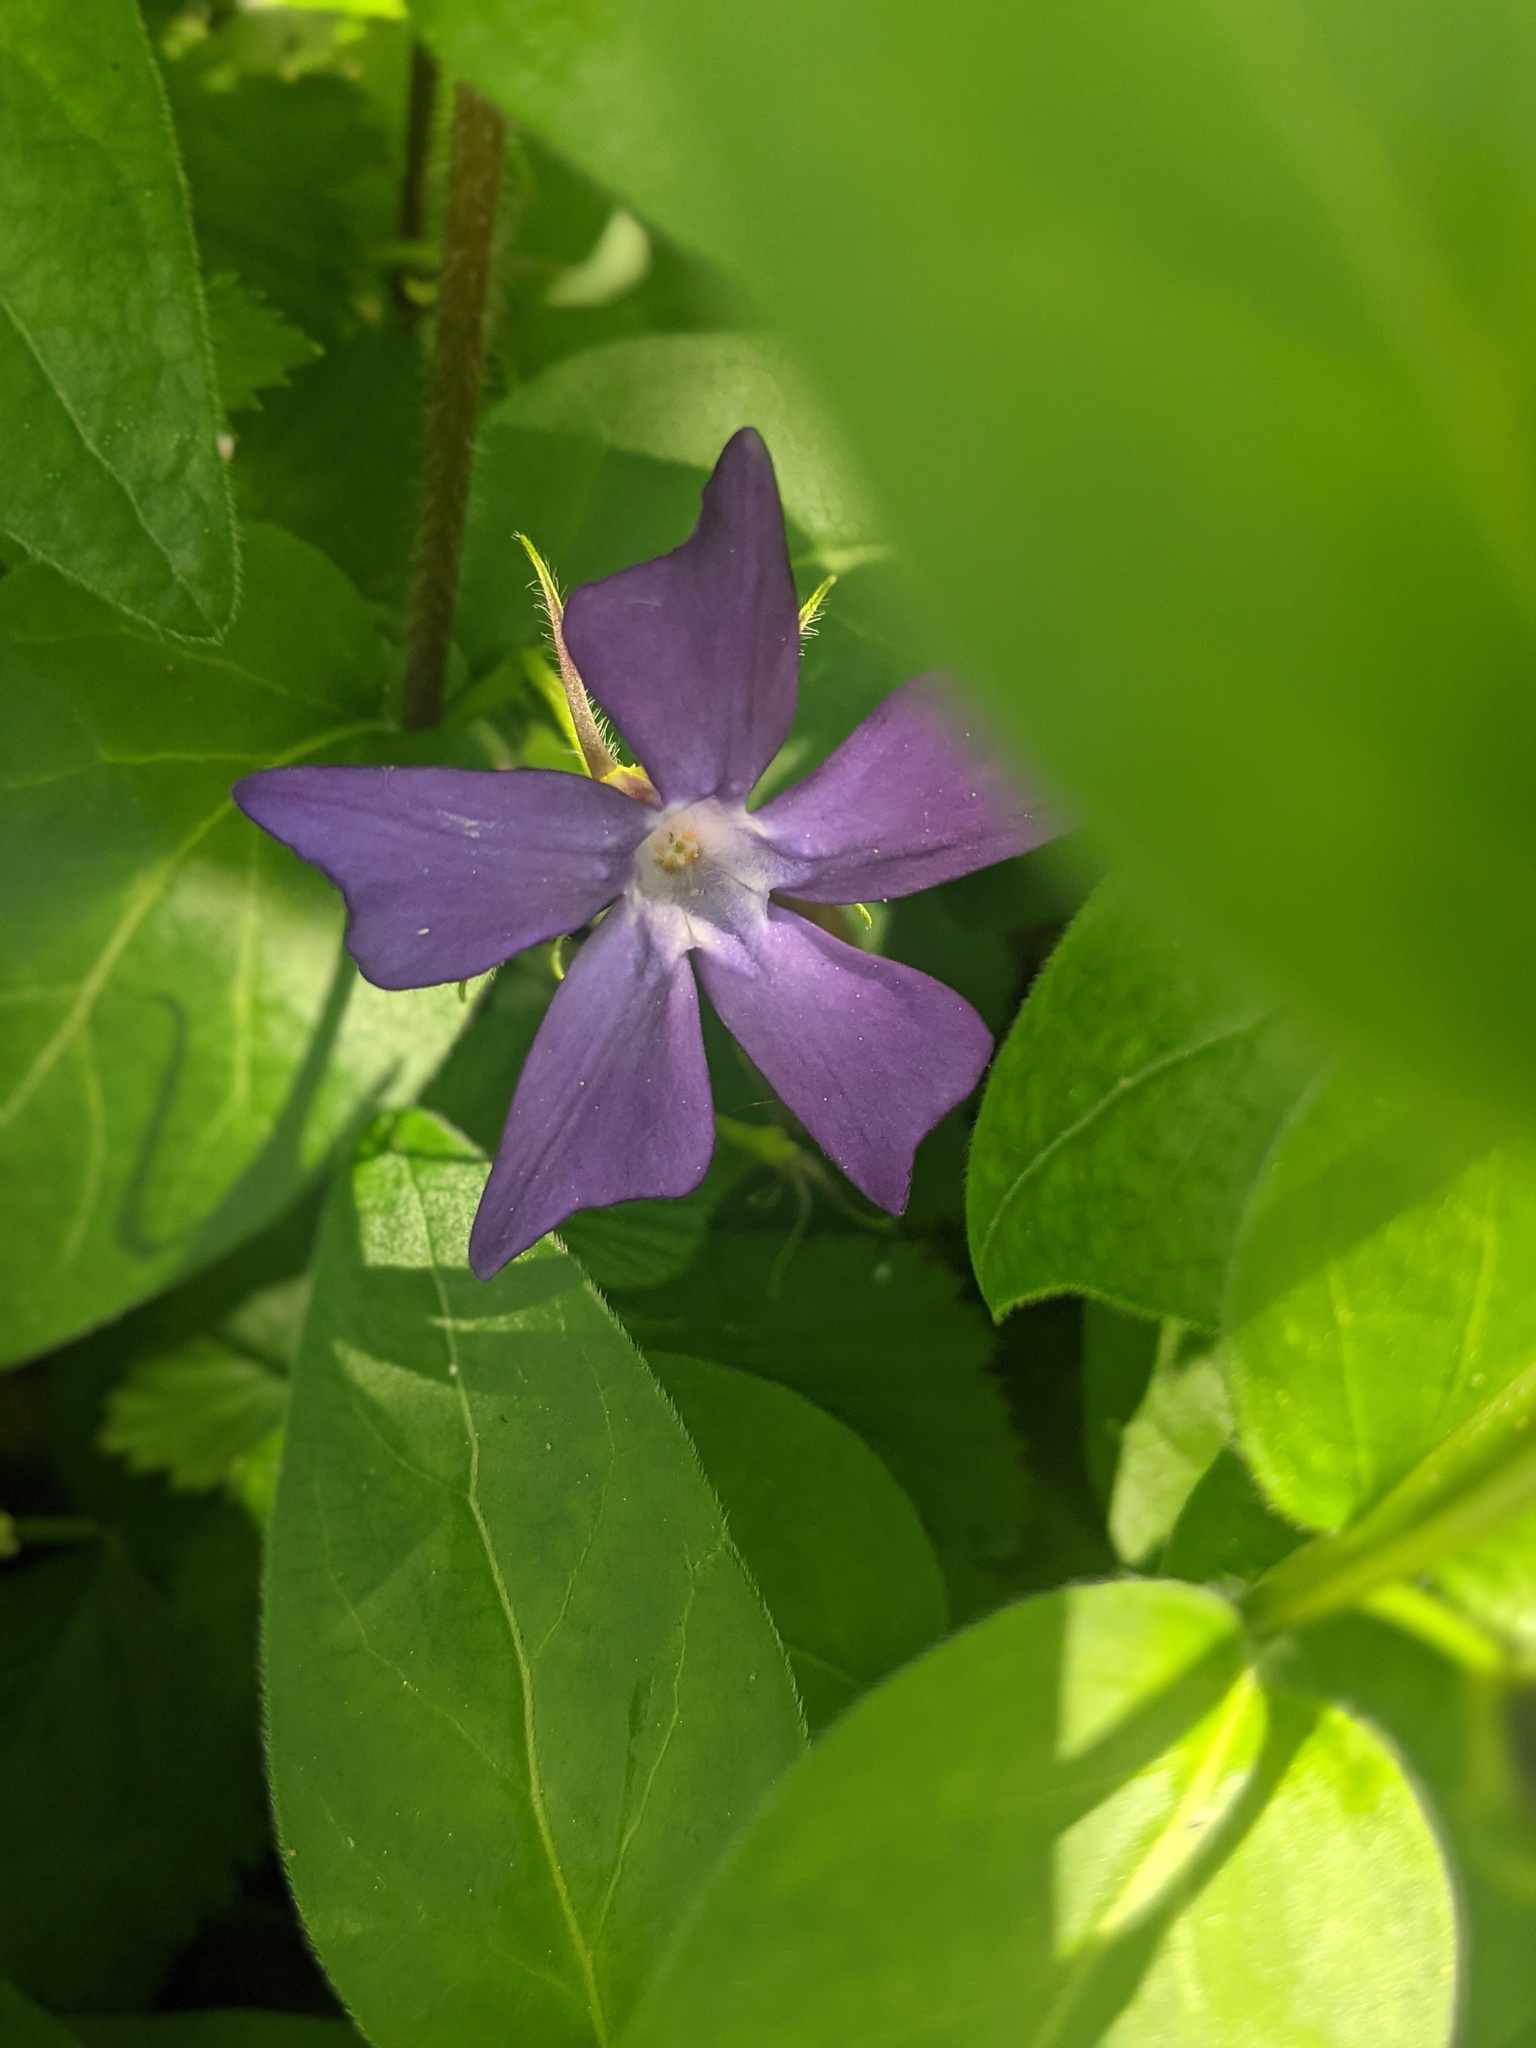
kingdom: Plantae
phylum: Tracheophyta
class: Magnoliopsida
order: Gentianales
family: Apocynaceae
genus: Vinca
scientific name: Vinca major
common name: Greater periwinkle
